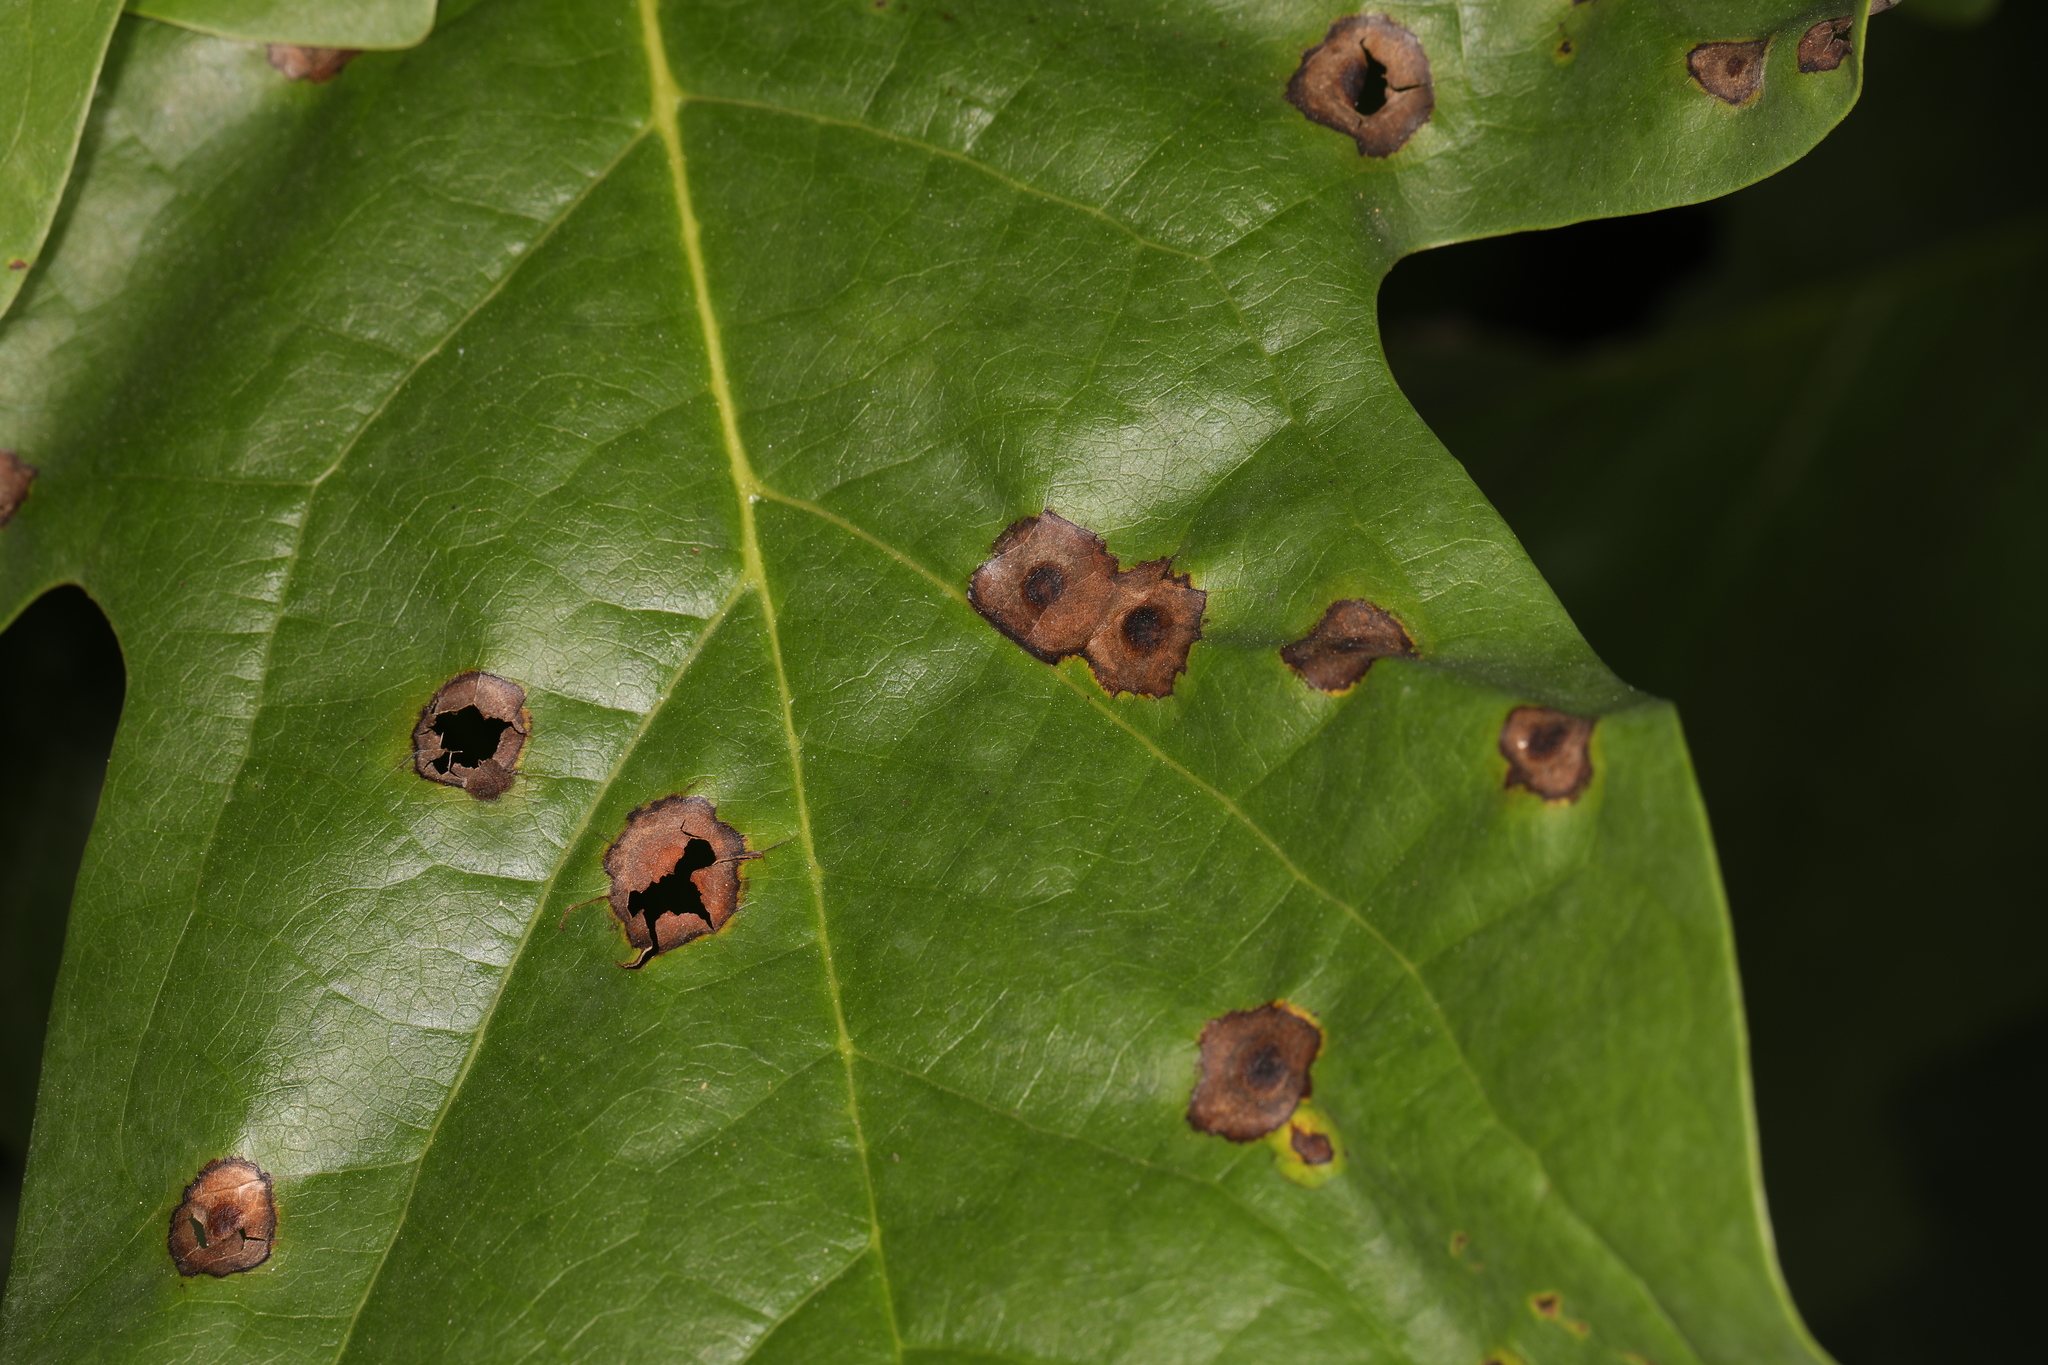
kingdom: Animalia
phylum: Arthropoda
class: Insecta
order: Diptera
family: Cecidomyiidae
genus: Resseliella
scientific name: Resseliella liriodendri
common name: Tulip tree leaf spot gall midge
